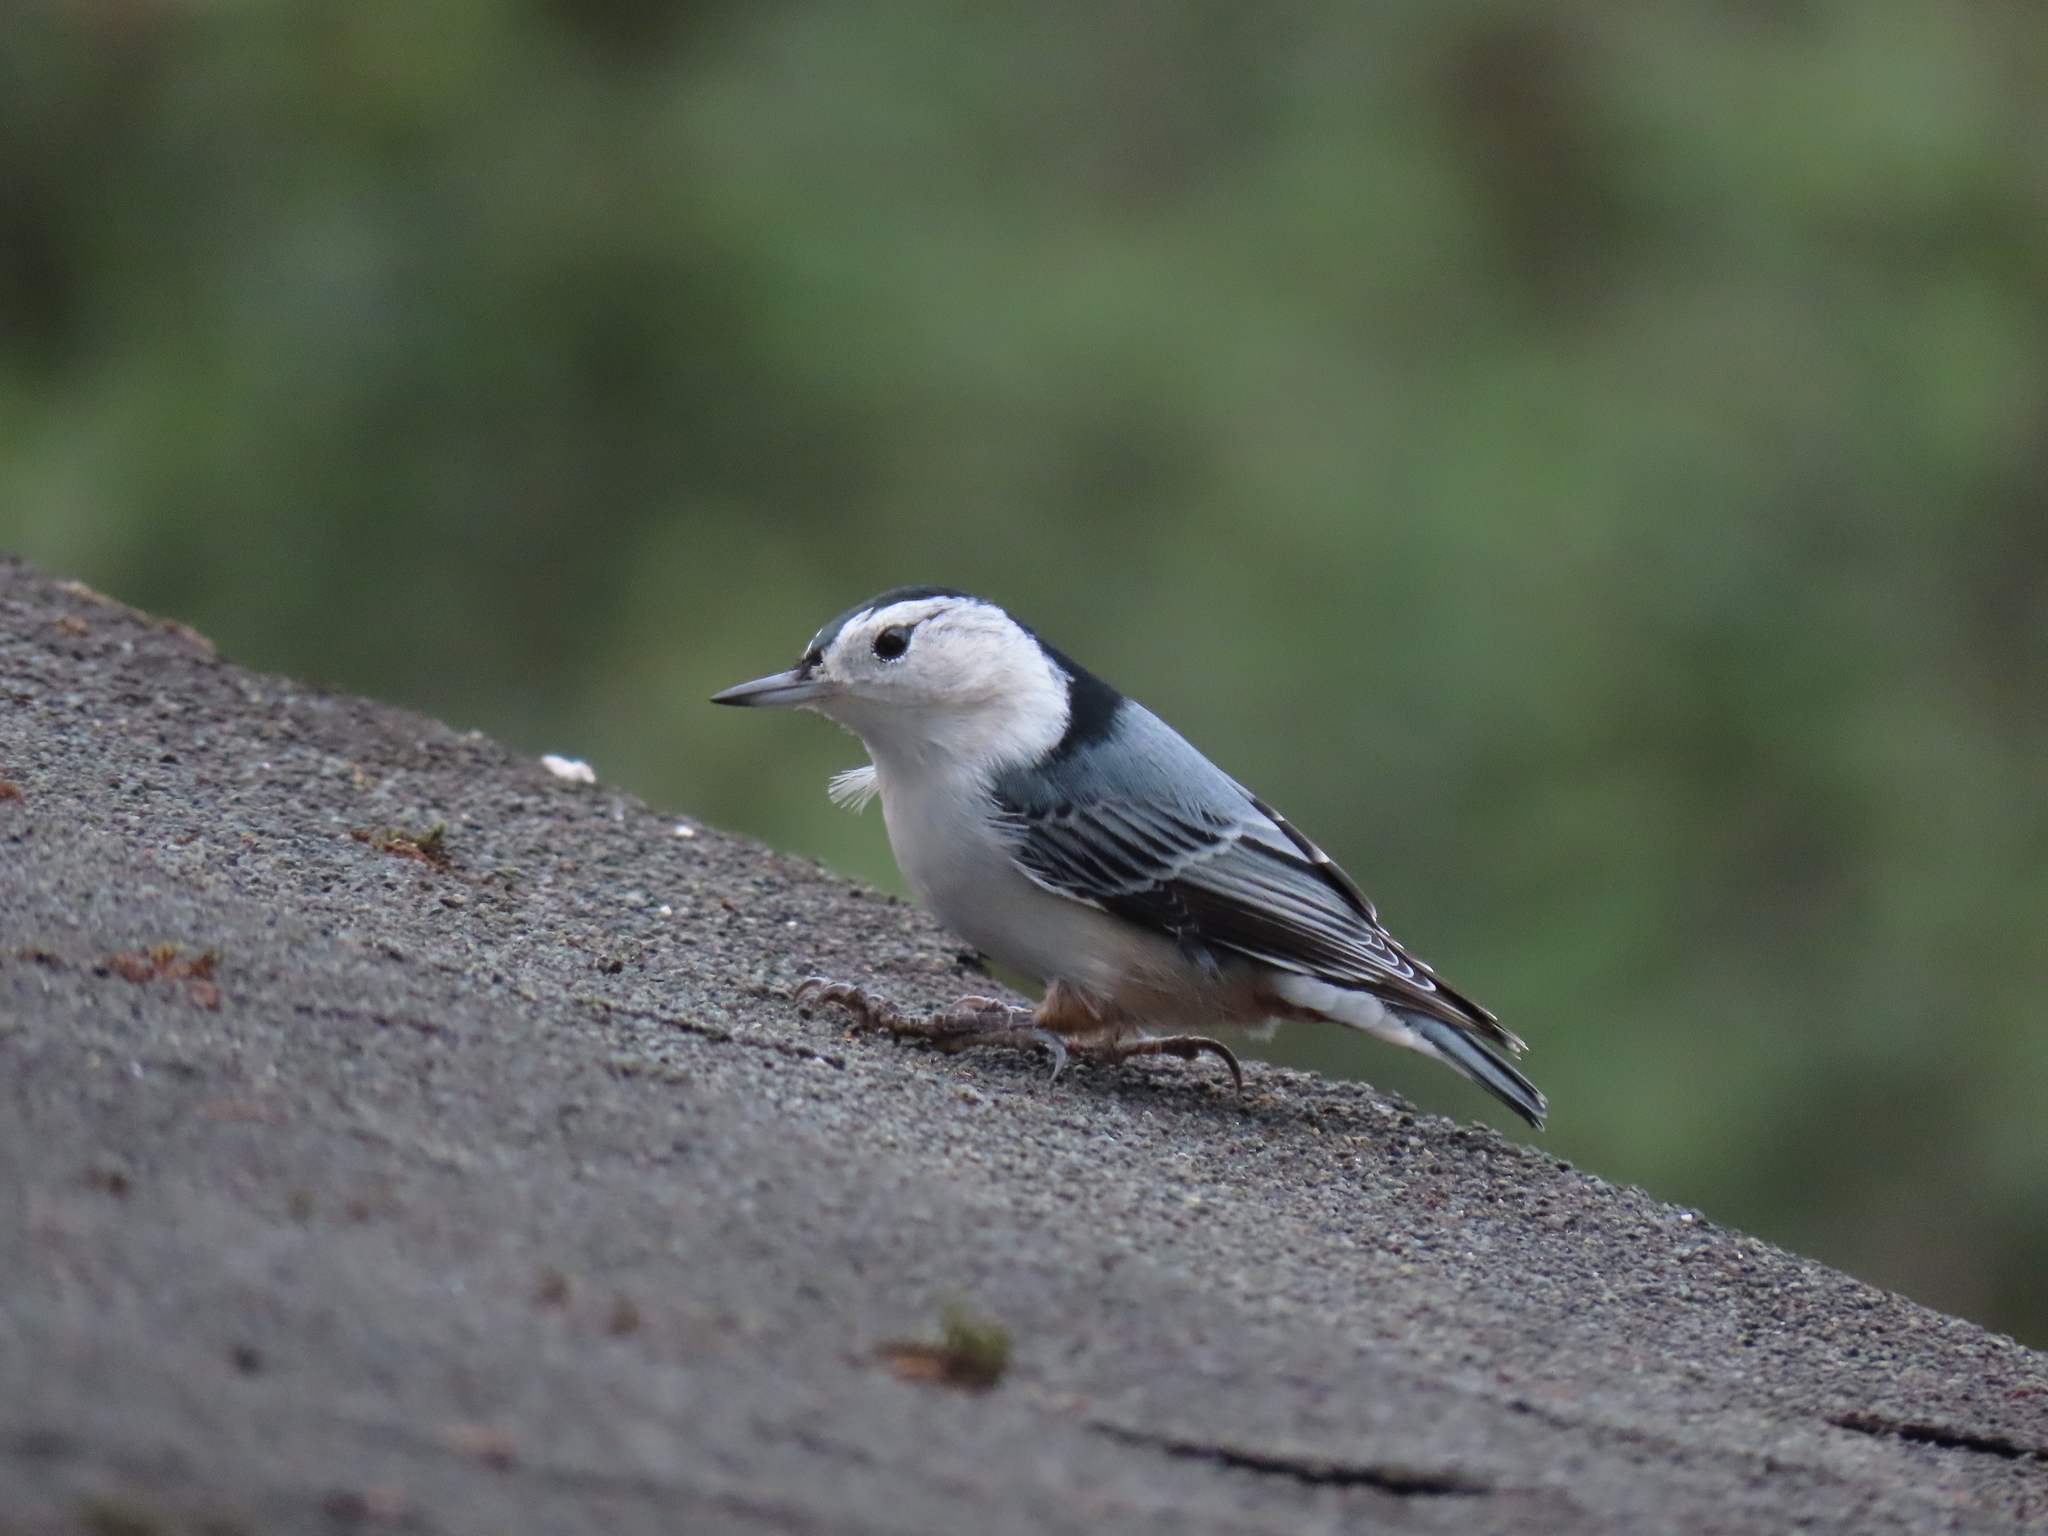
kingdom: Animalia
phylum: Chordata
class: Aves
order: Passeriformes
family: Sittidae
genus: Sitta
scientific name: Sitta carolinensis
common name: White-breasted nuthatch
